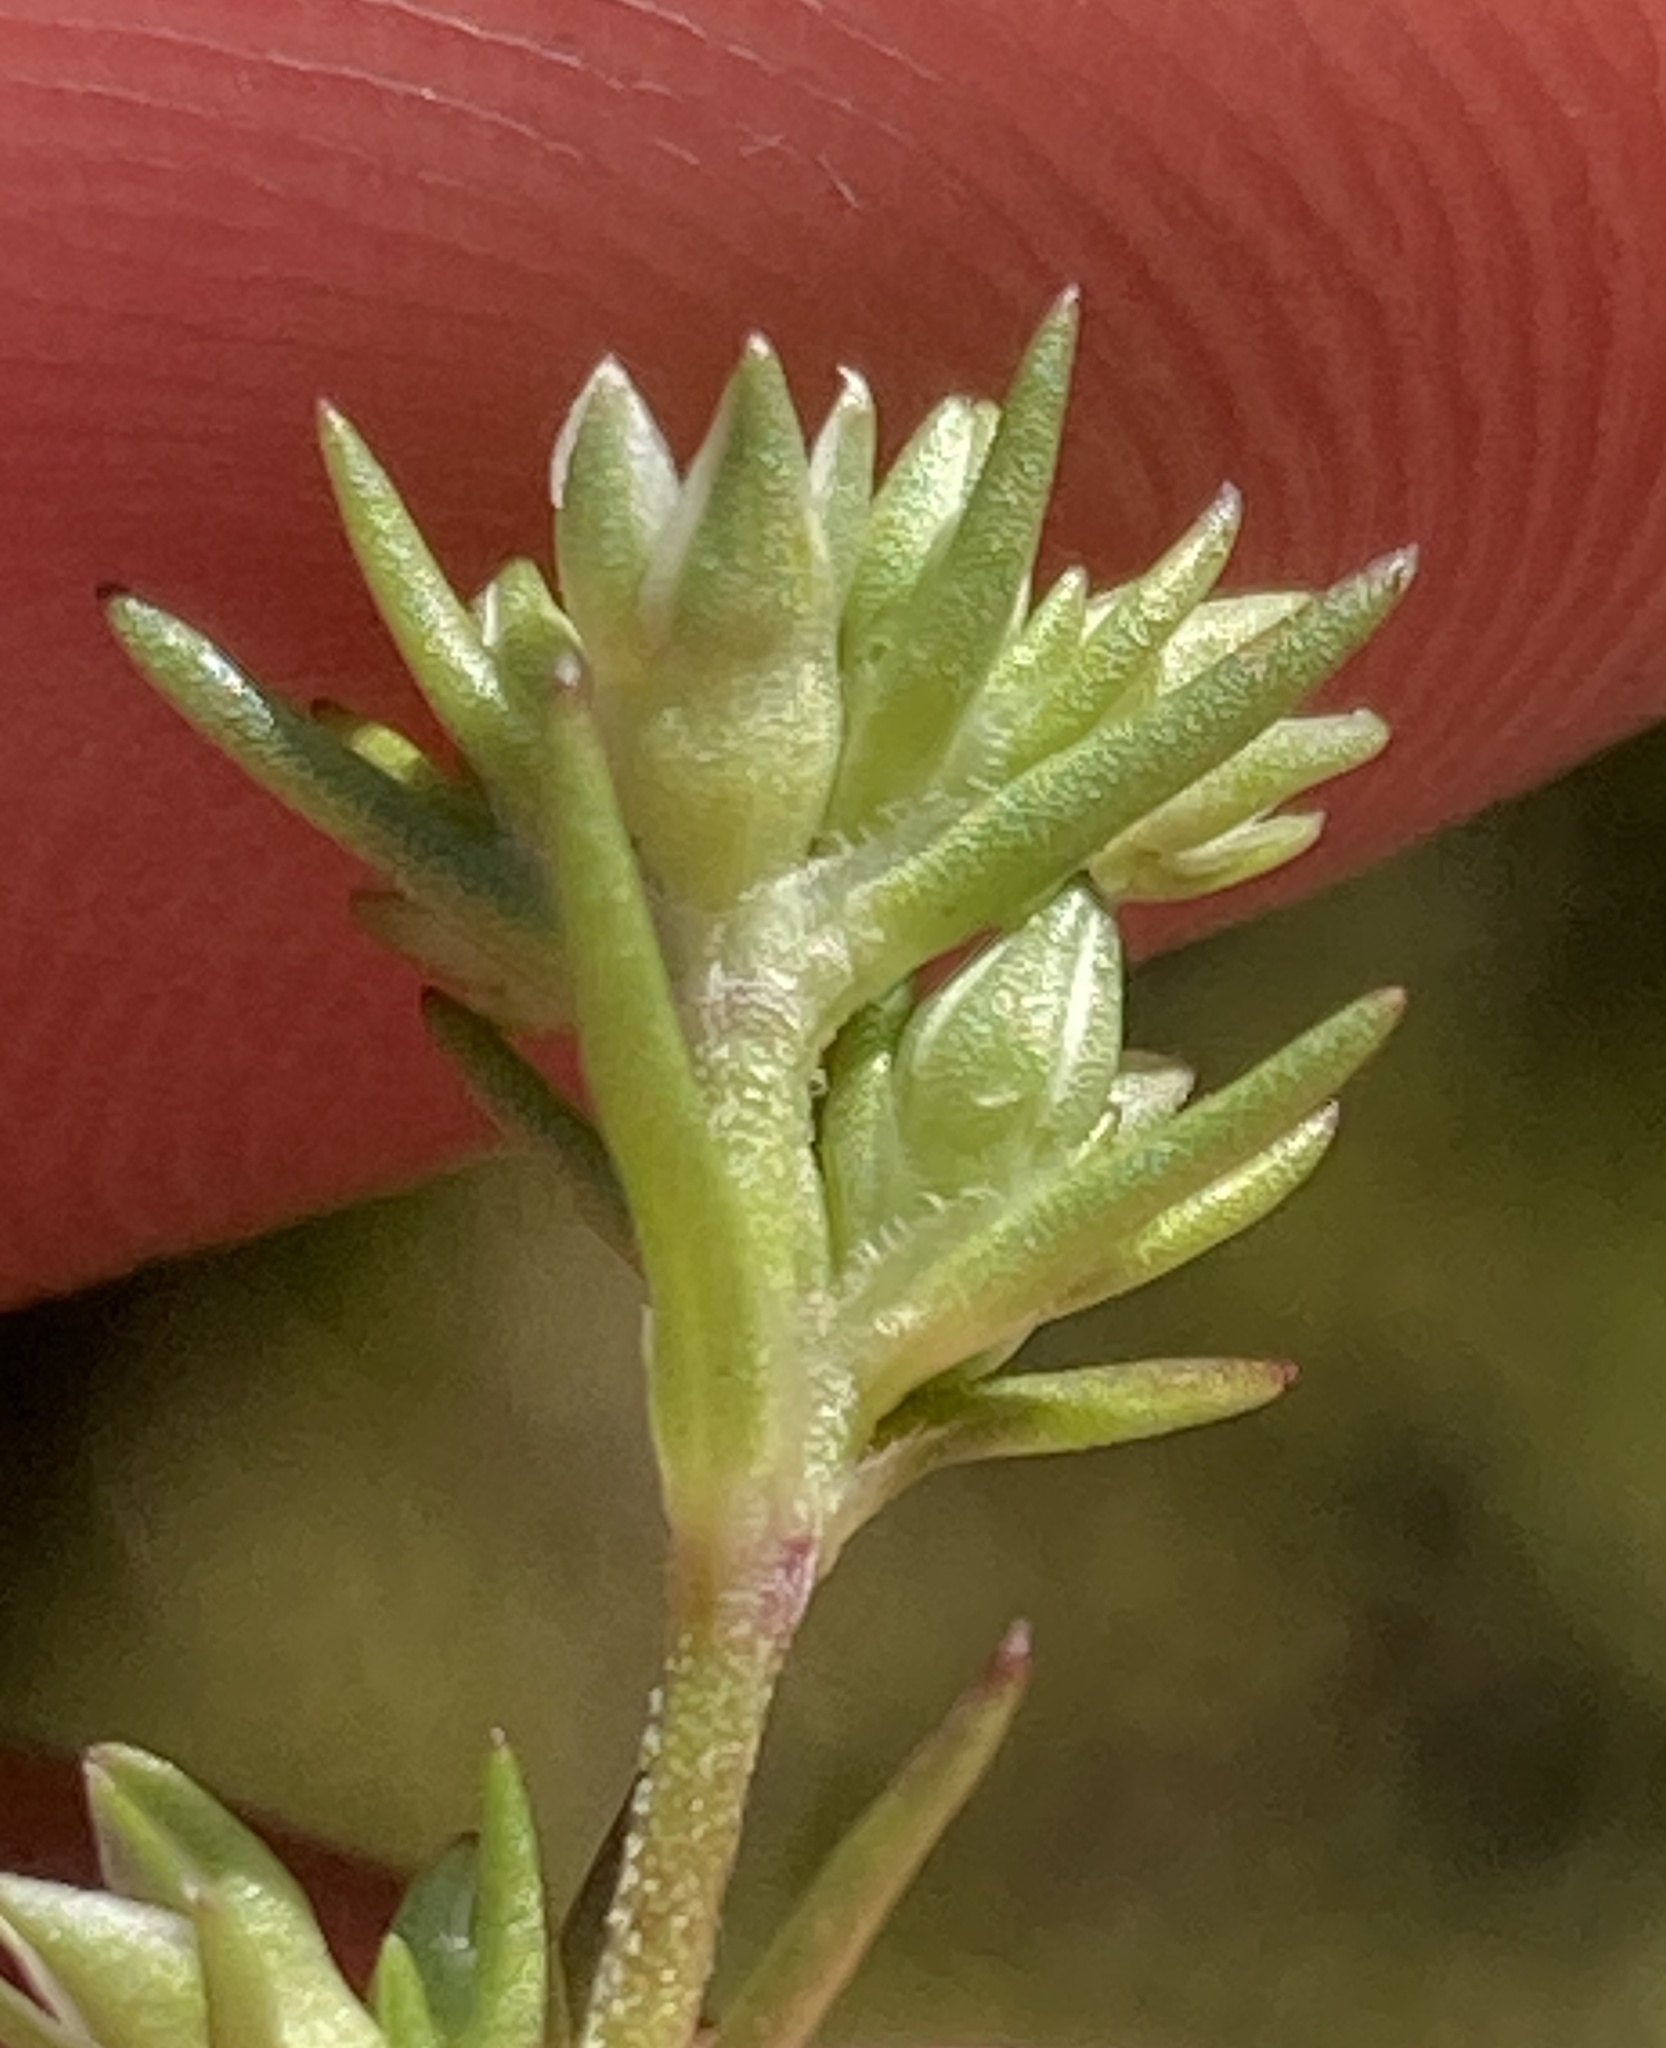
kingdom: Plantae
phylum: Tracheophyta
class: Magnoliopsida
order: Caryophyllales
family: Caryophyllaceae
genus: Scleranthus
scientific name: Scleranthus annuus
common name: Annual knawel
